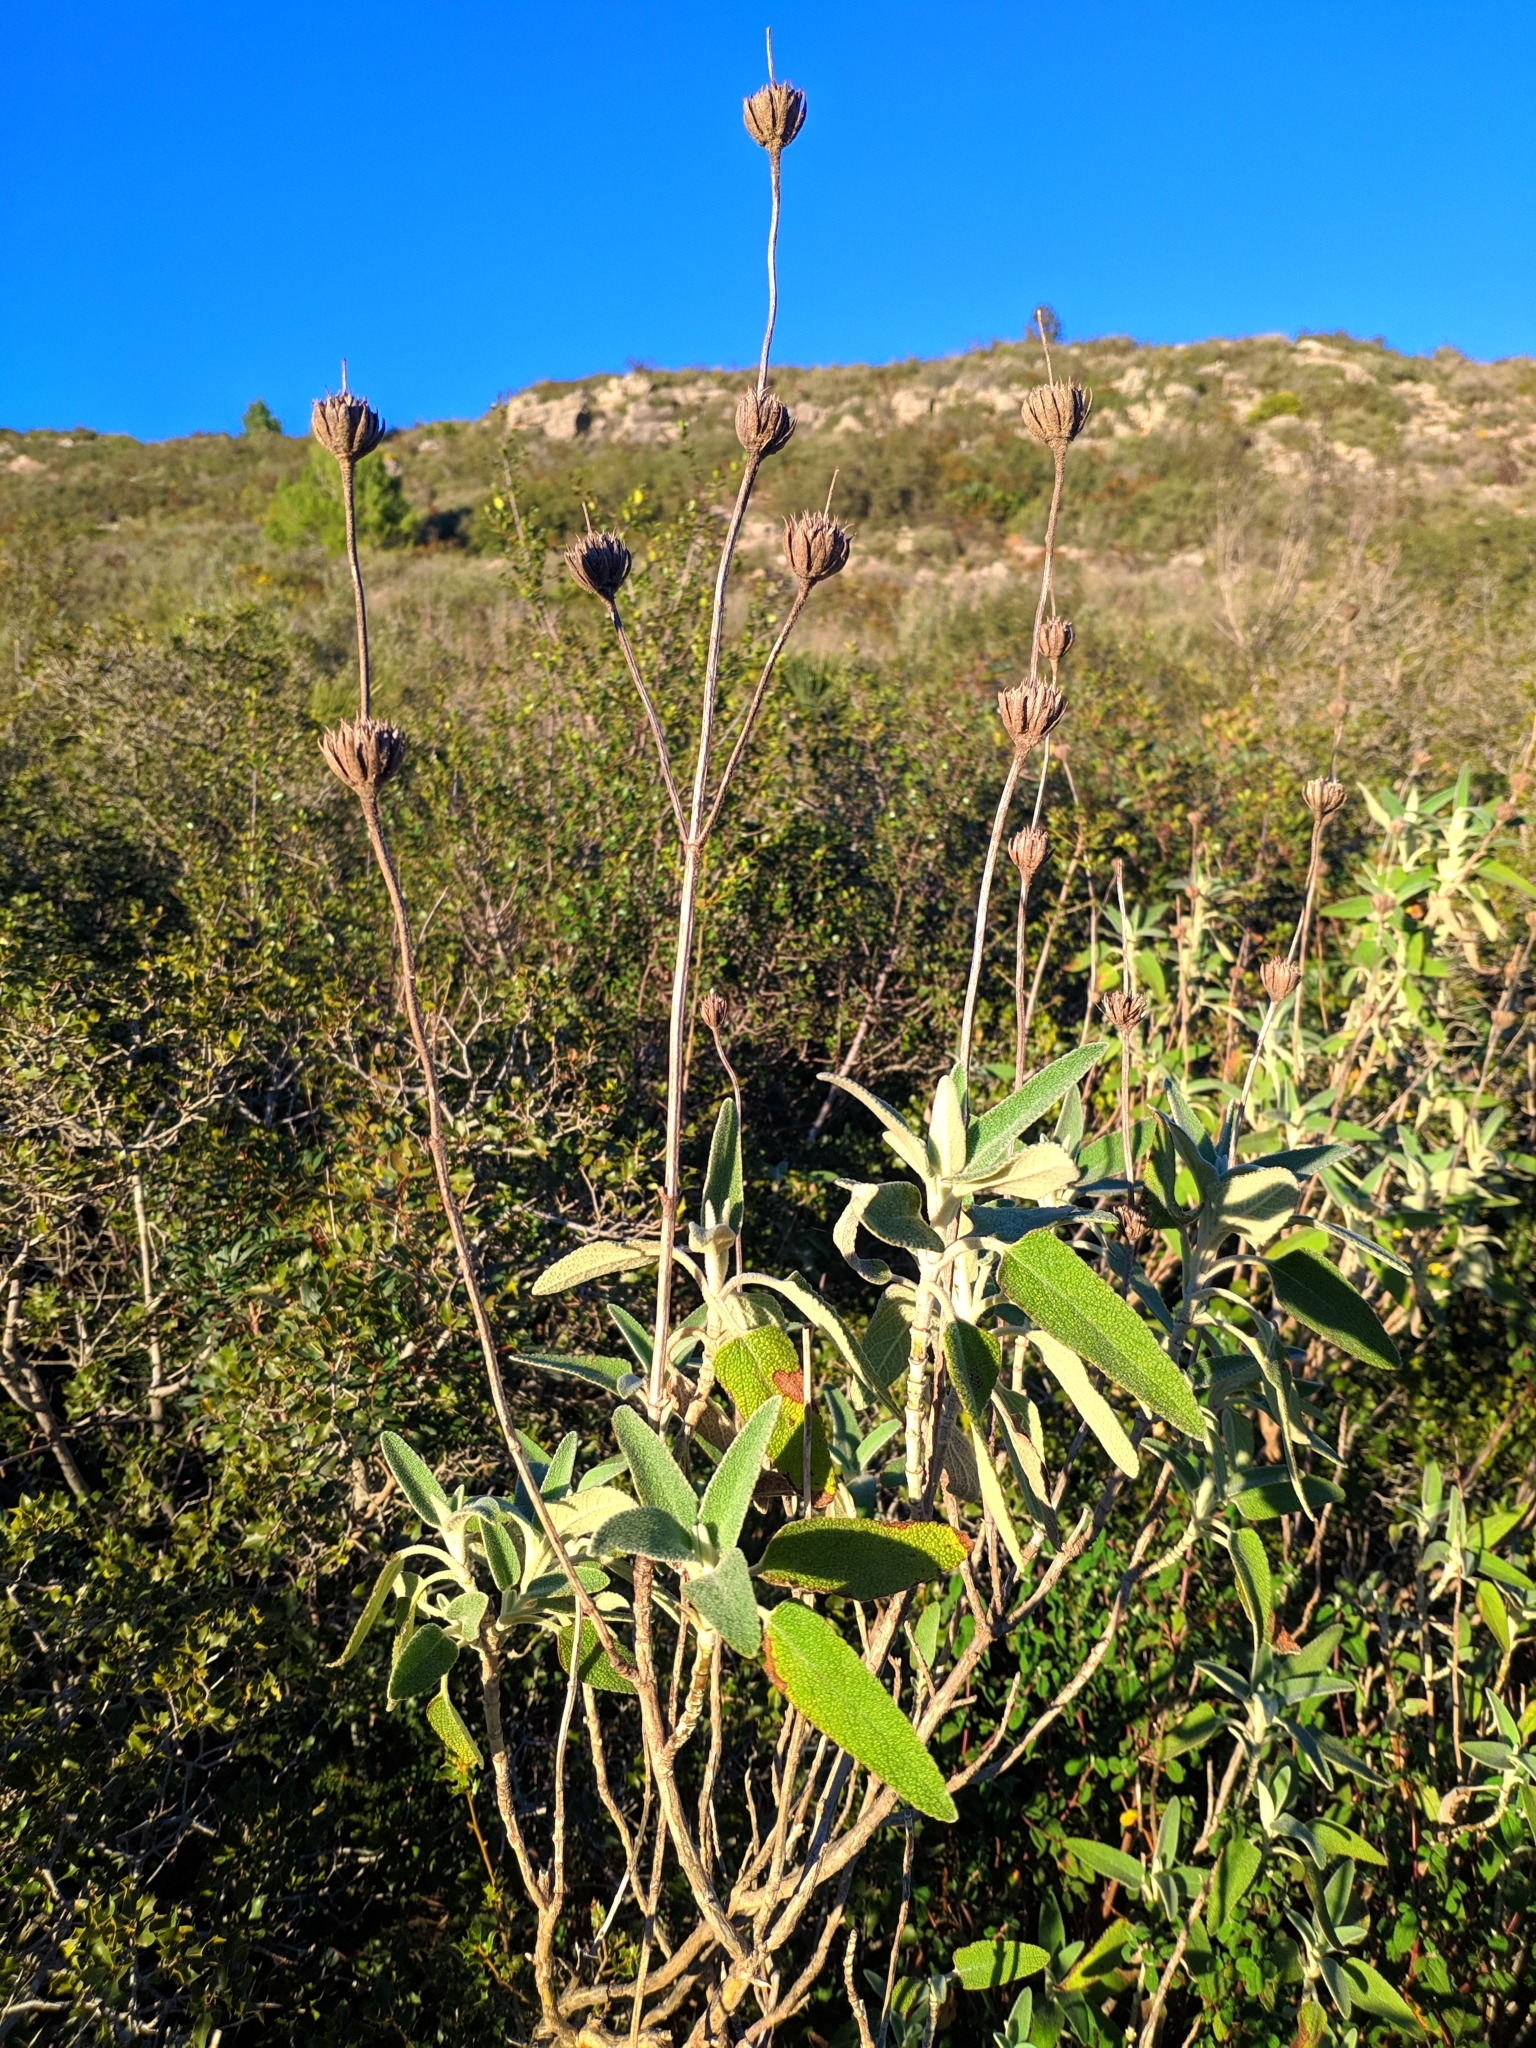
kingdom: Plantae
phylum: Tracheophyta
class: Magnoliopsida
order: Lamiales
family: Lamiaceae
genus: Phlomis
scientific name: Phlomis purpurea
